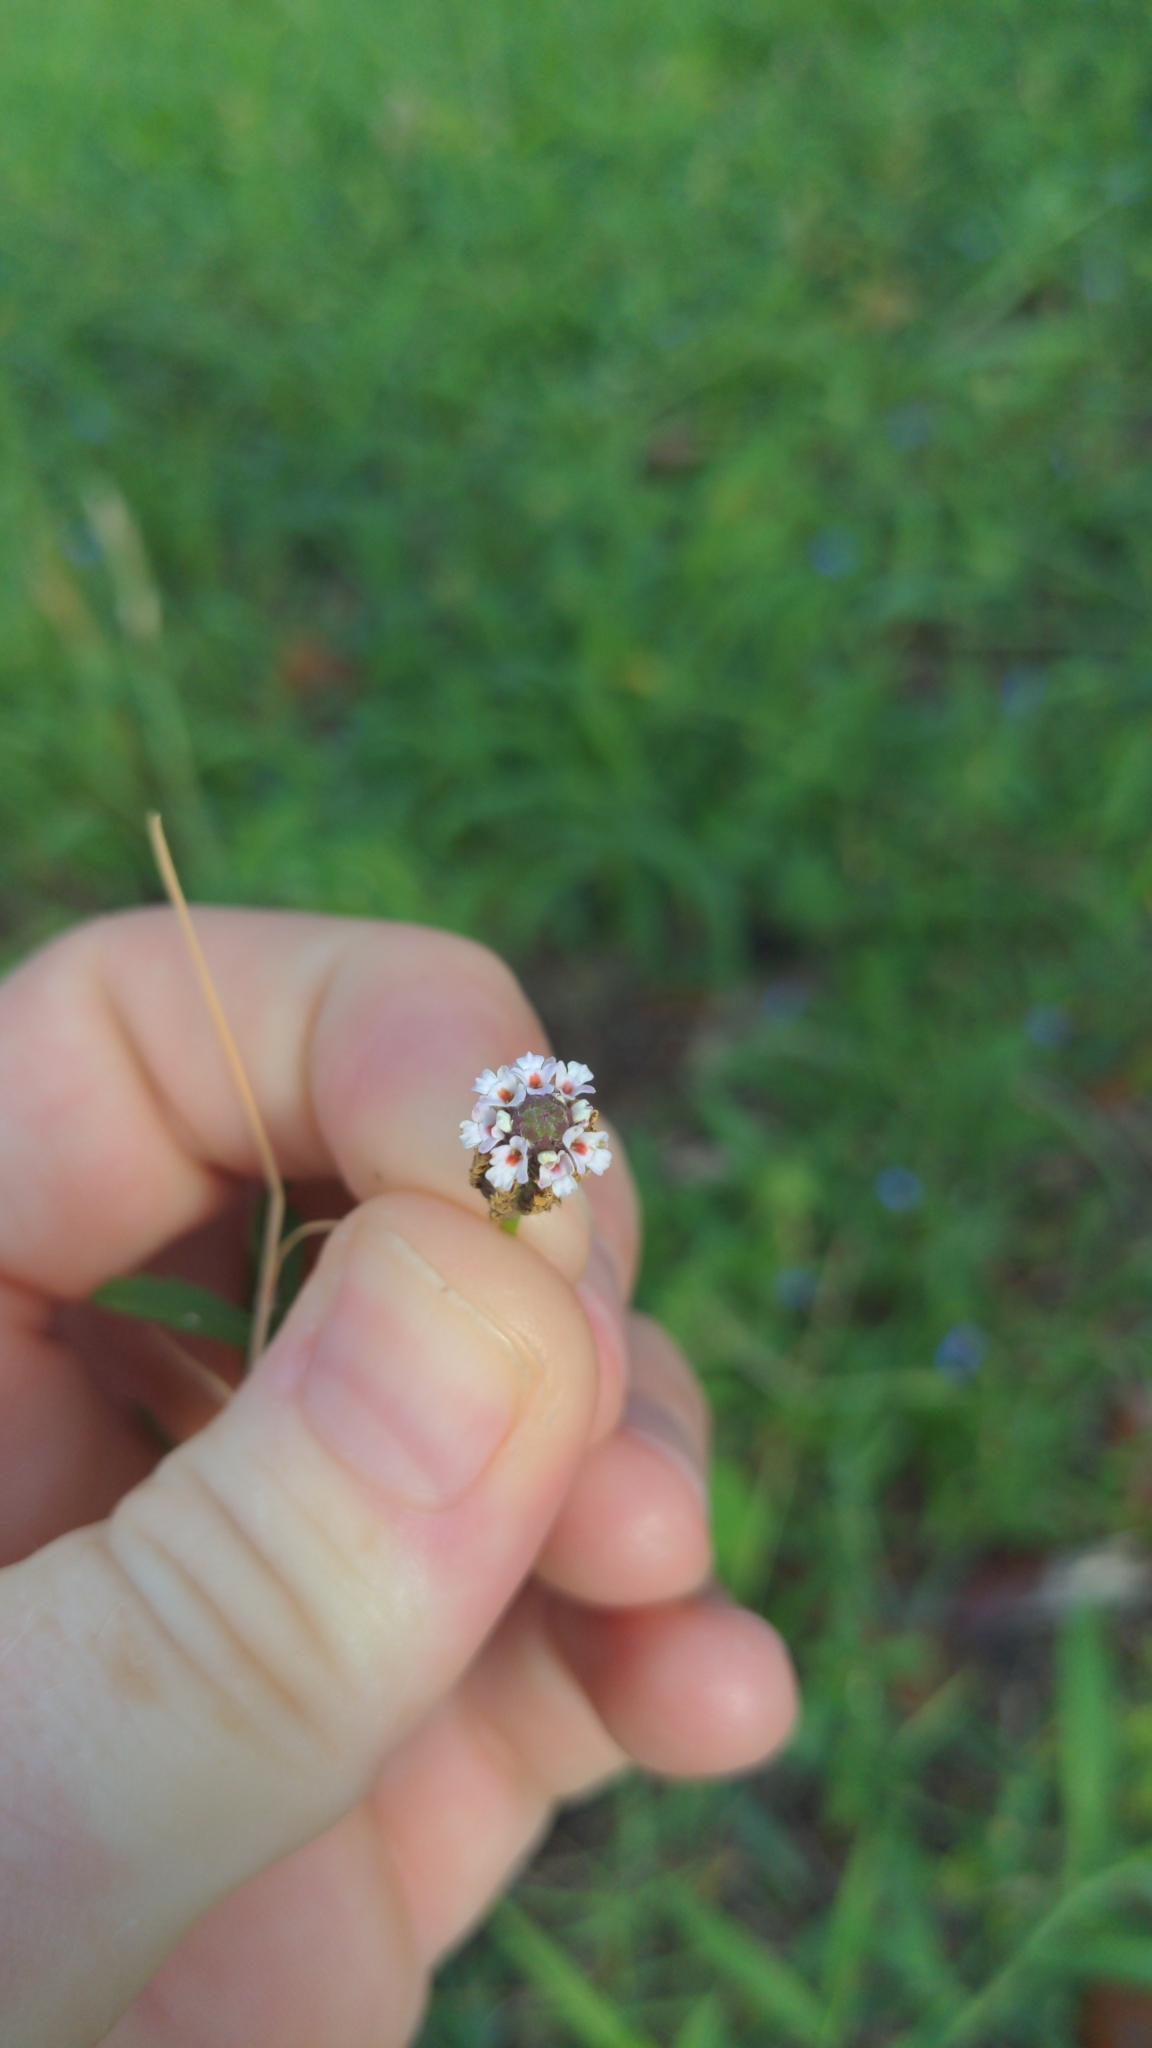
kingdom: Plantae
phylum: Tracheophyta
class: Magnoliopsida
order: Lamiales
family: Verbenaceae
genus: Phyla
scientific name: Phyla nodiflora
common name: Frogfruit
